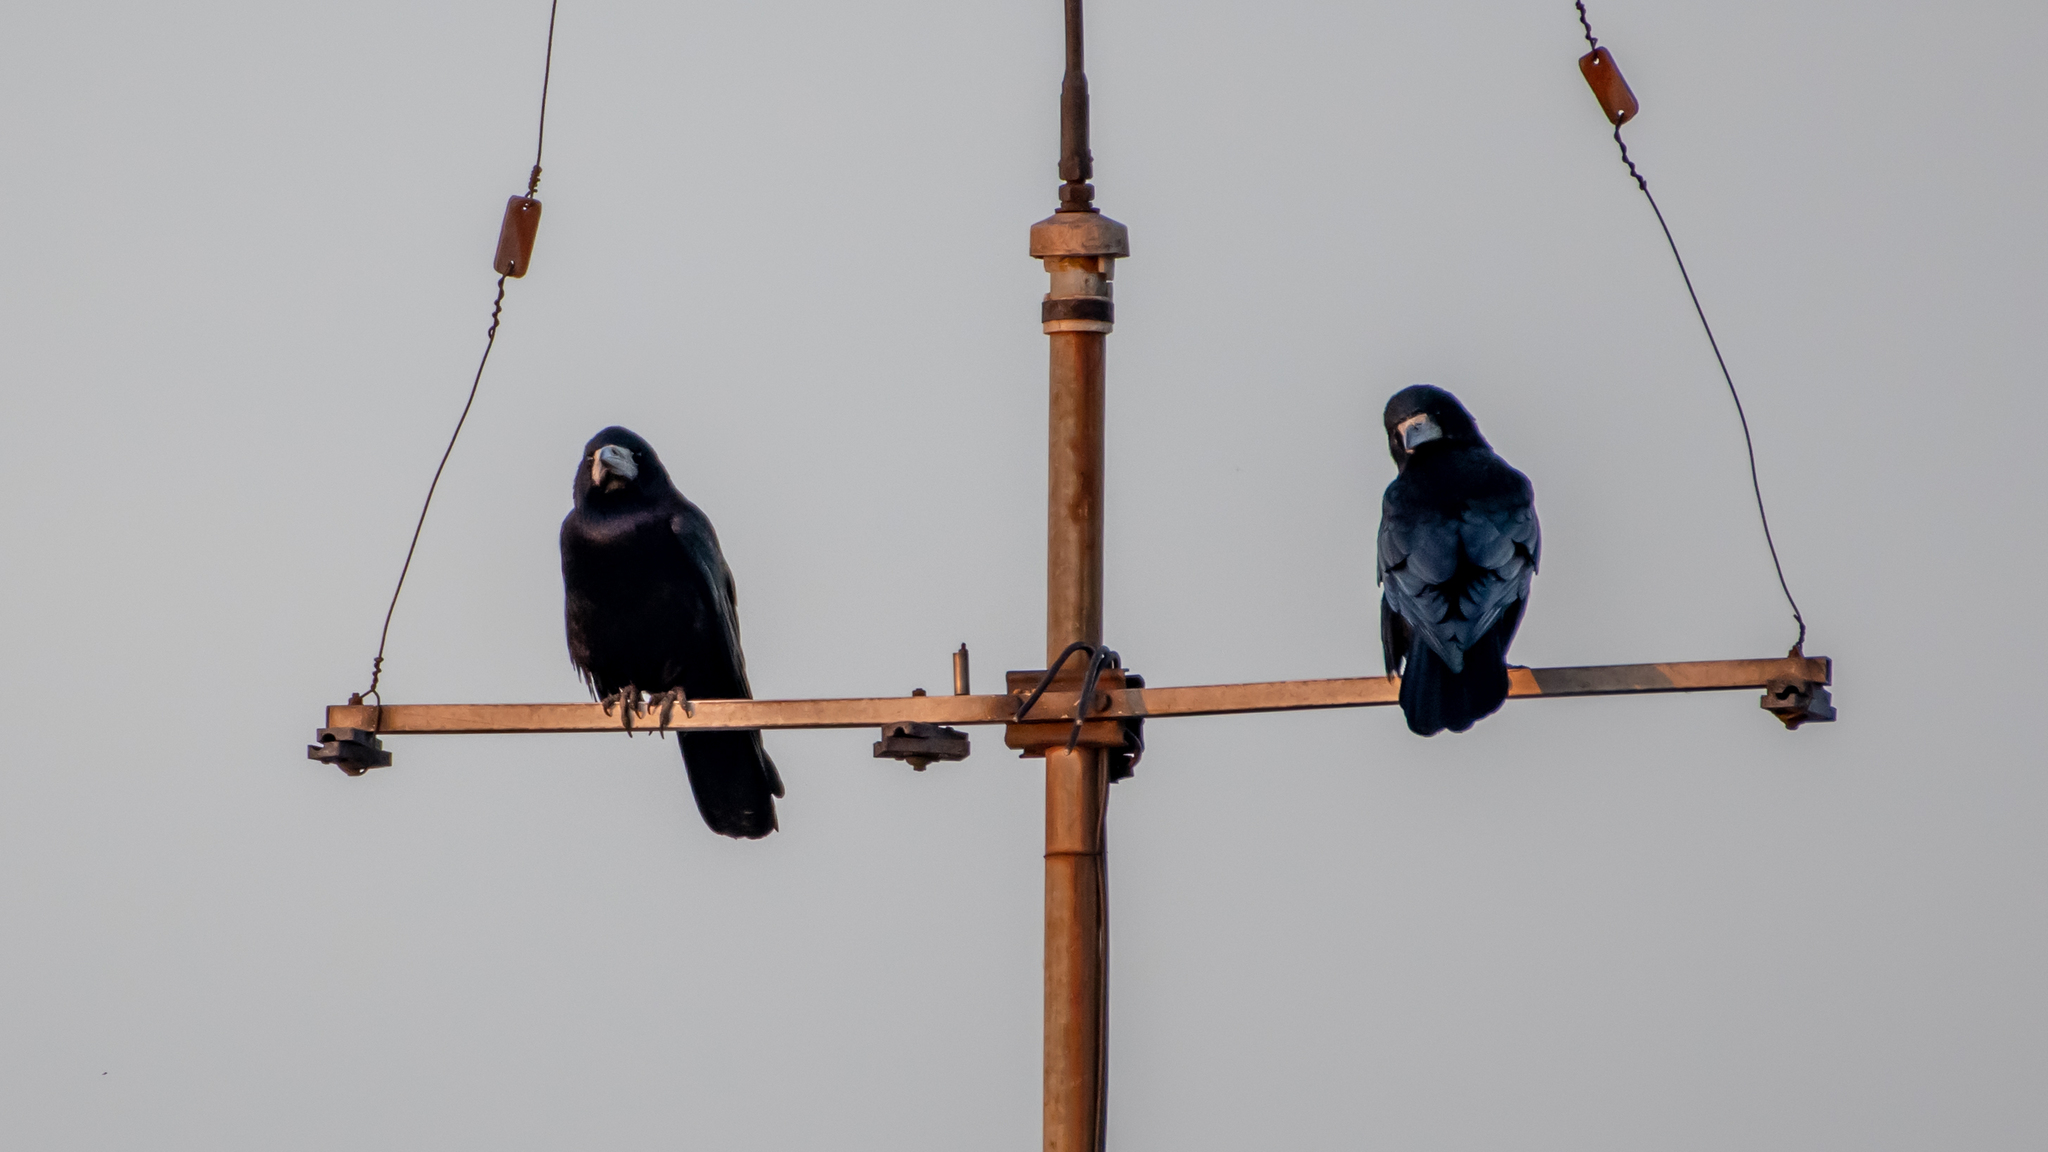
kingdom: Animalia
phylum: Chordata
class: Aves
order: Passeriformes
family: Corvidae
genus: Corvus
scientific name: Corvus frugilegus
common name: Rook
